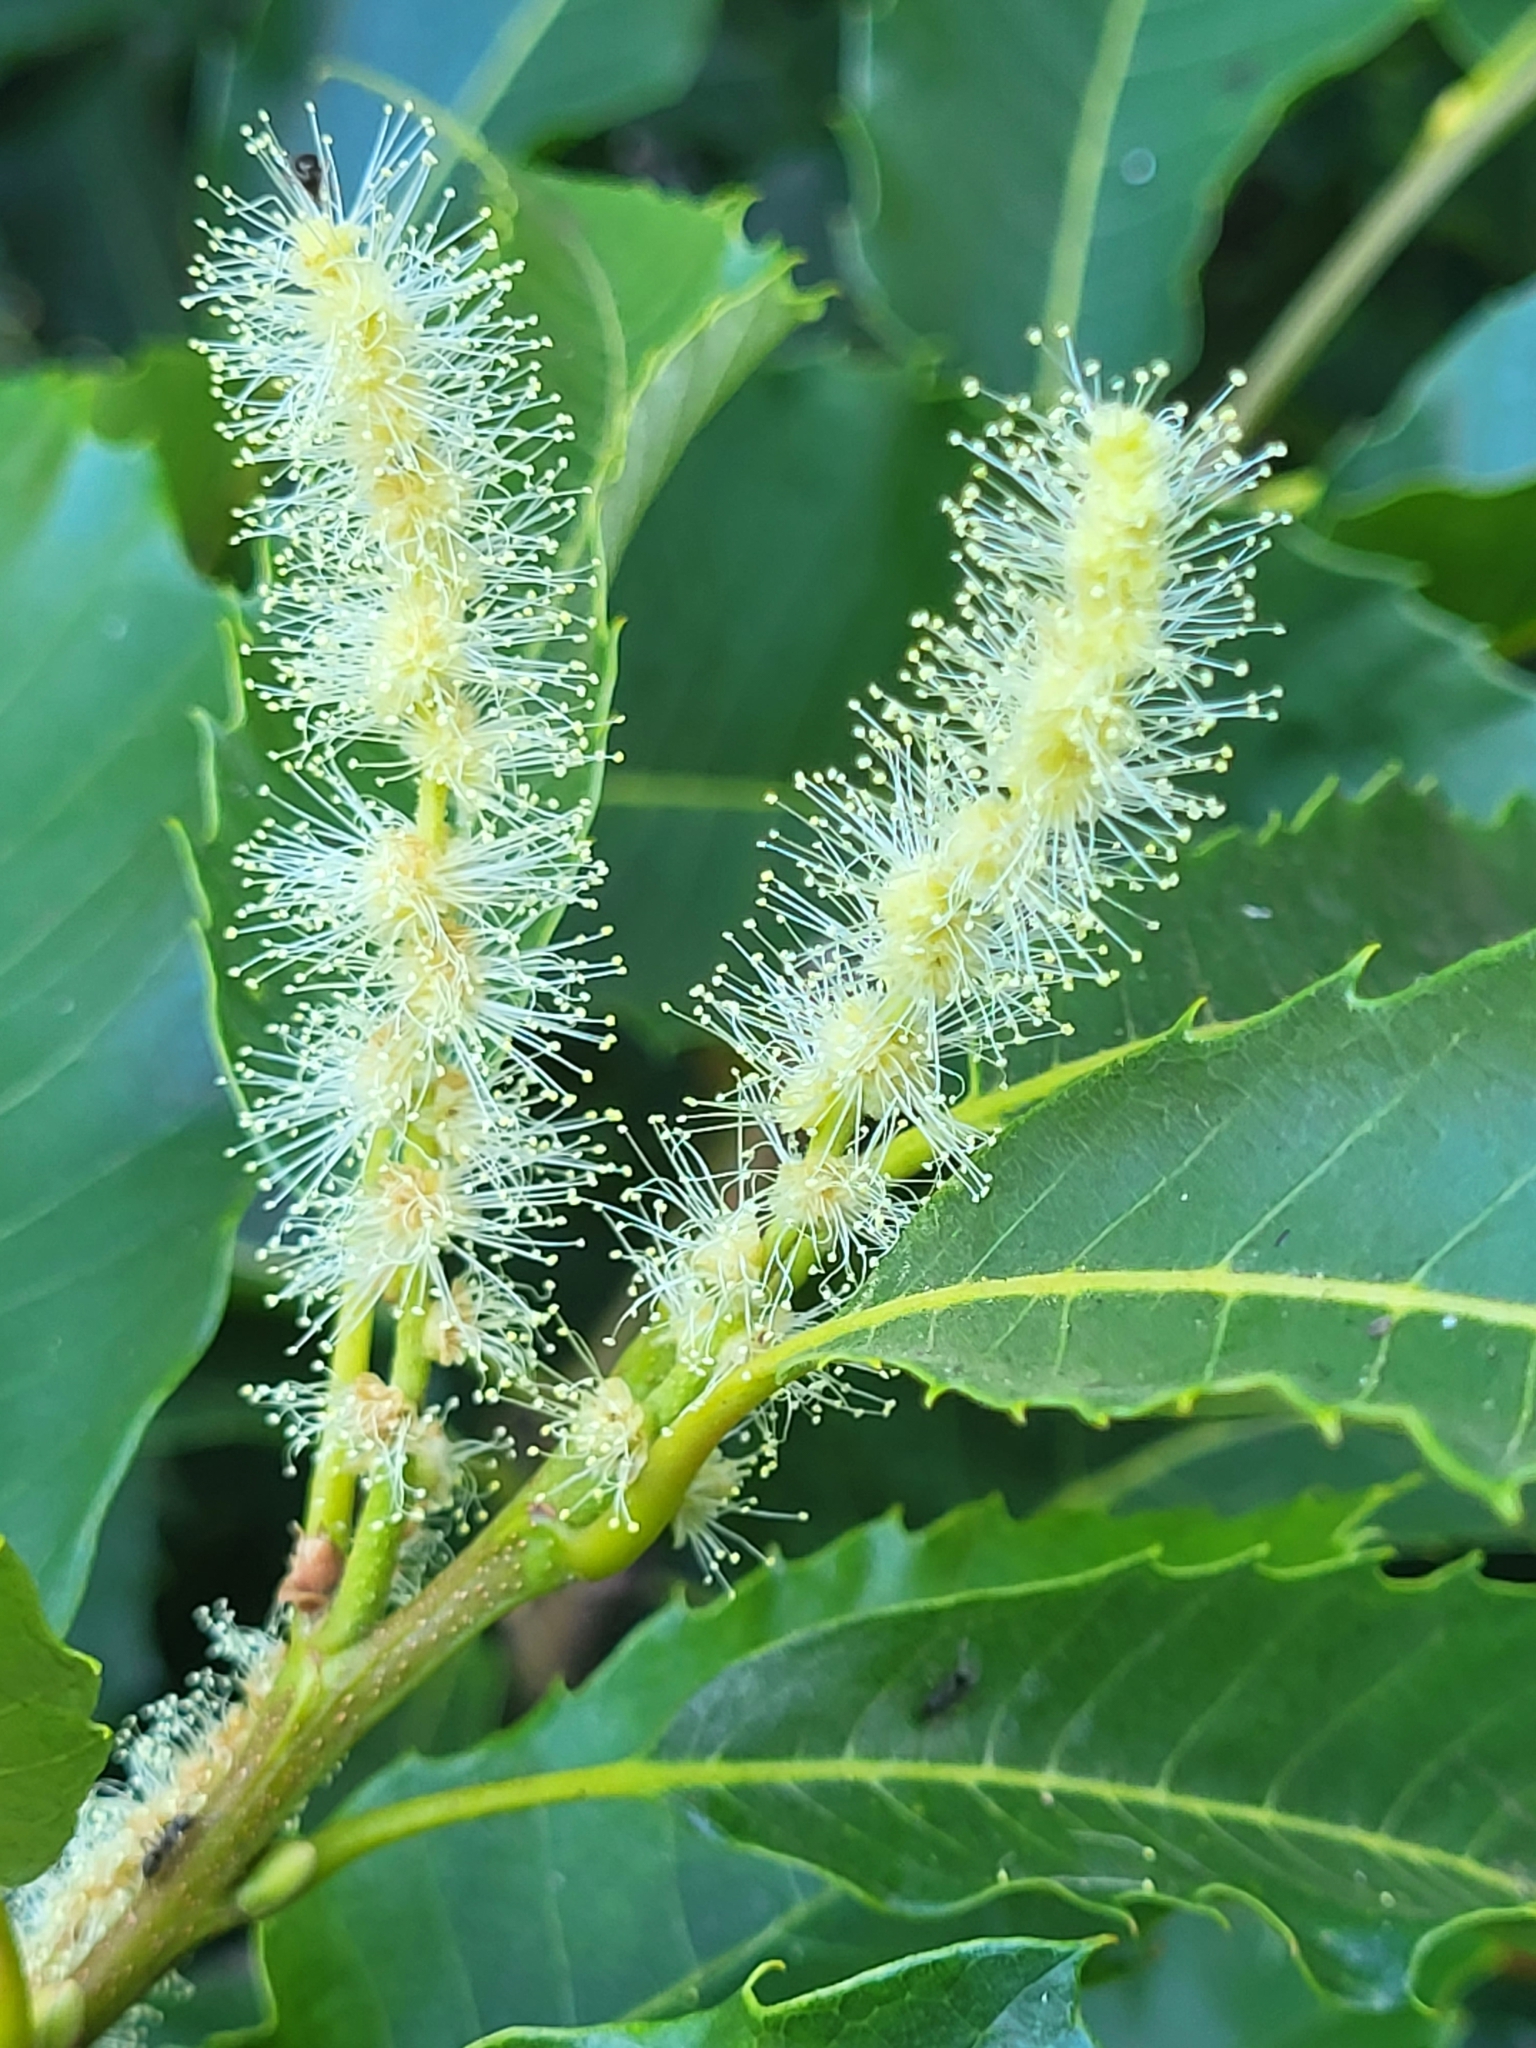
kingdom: Plantae
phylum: Tracheophyta
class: Magnoliopsida
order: Fagales
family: Fagaceae
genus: Castanea
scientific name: Castanea sativa
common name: Sweet chestnut
